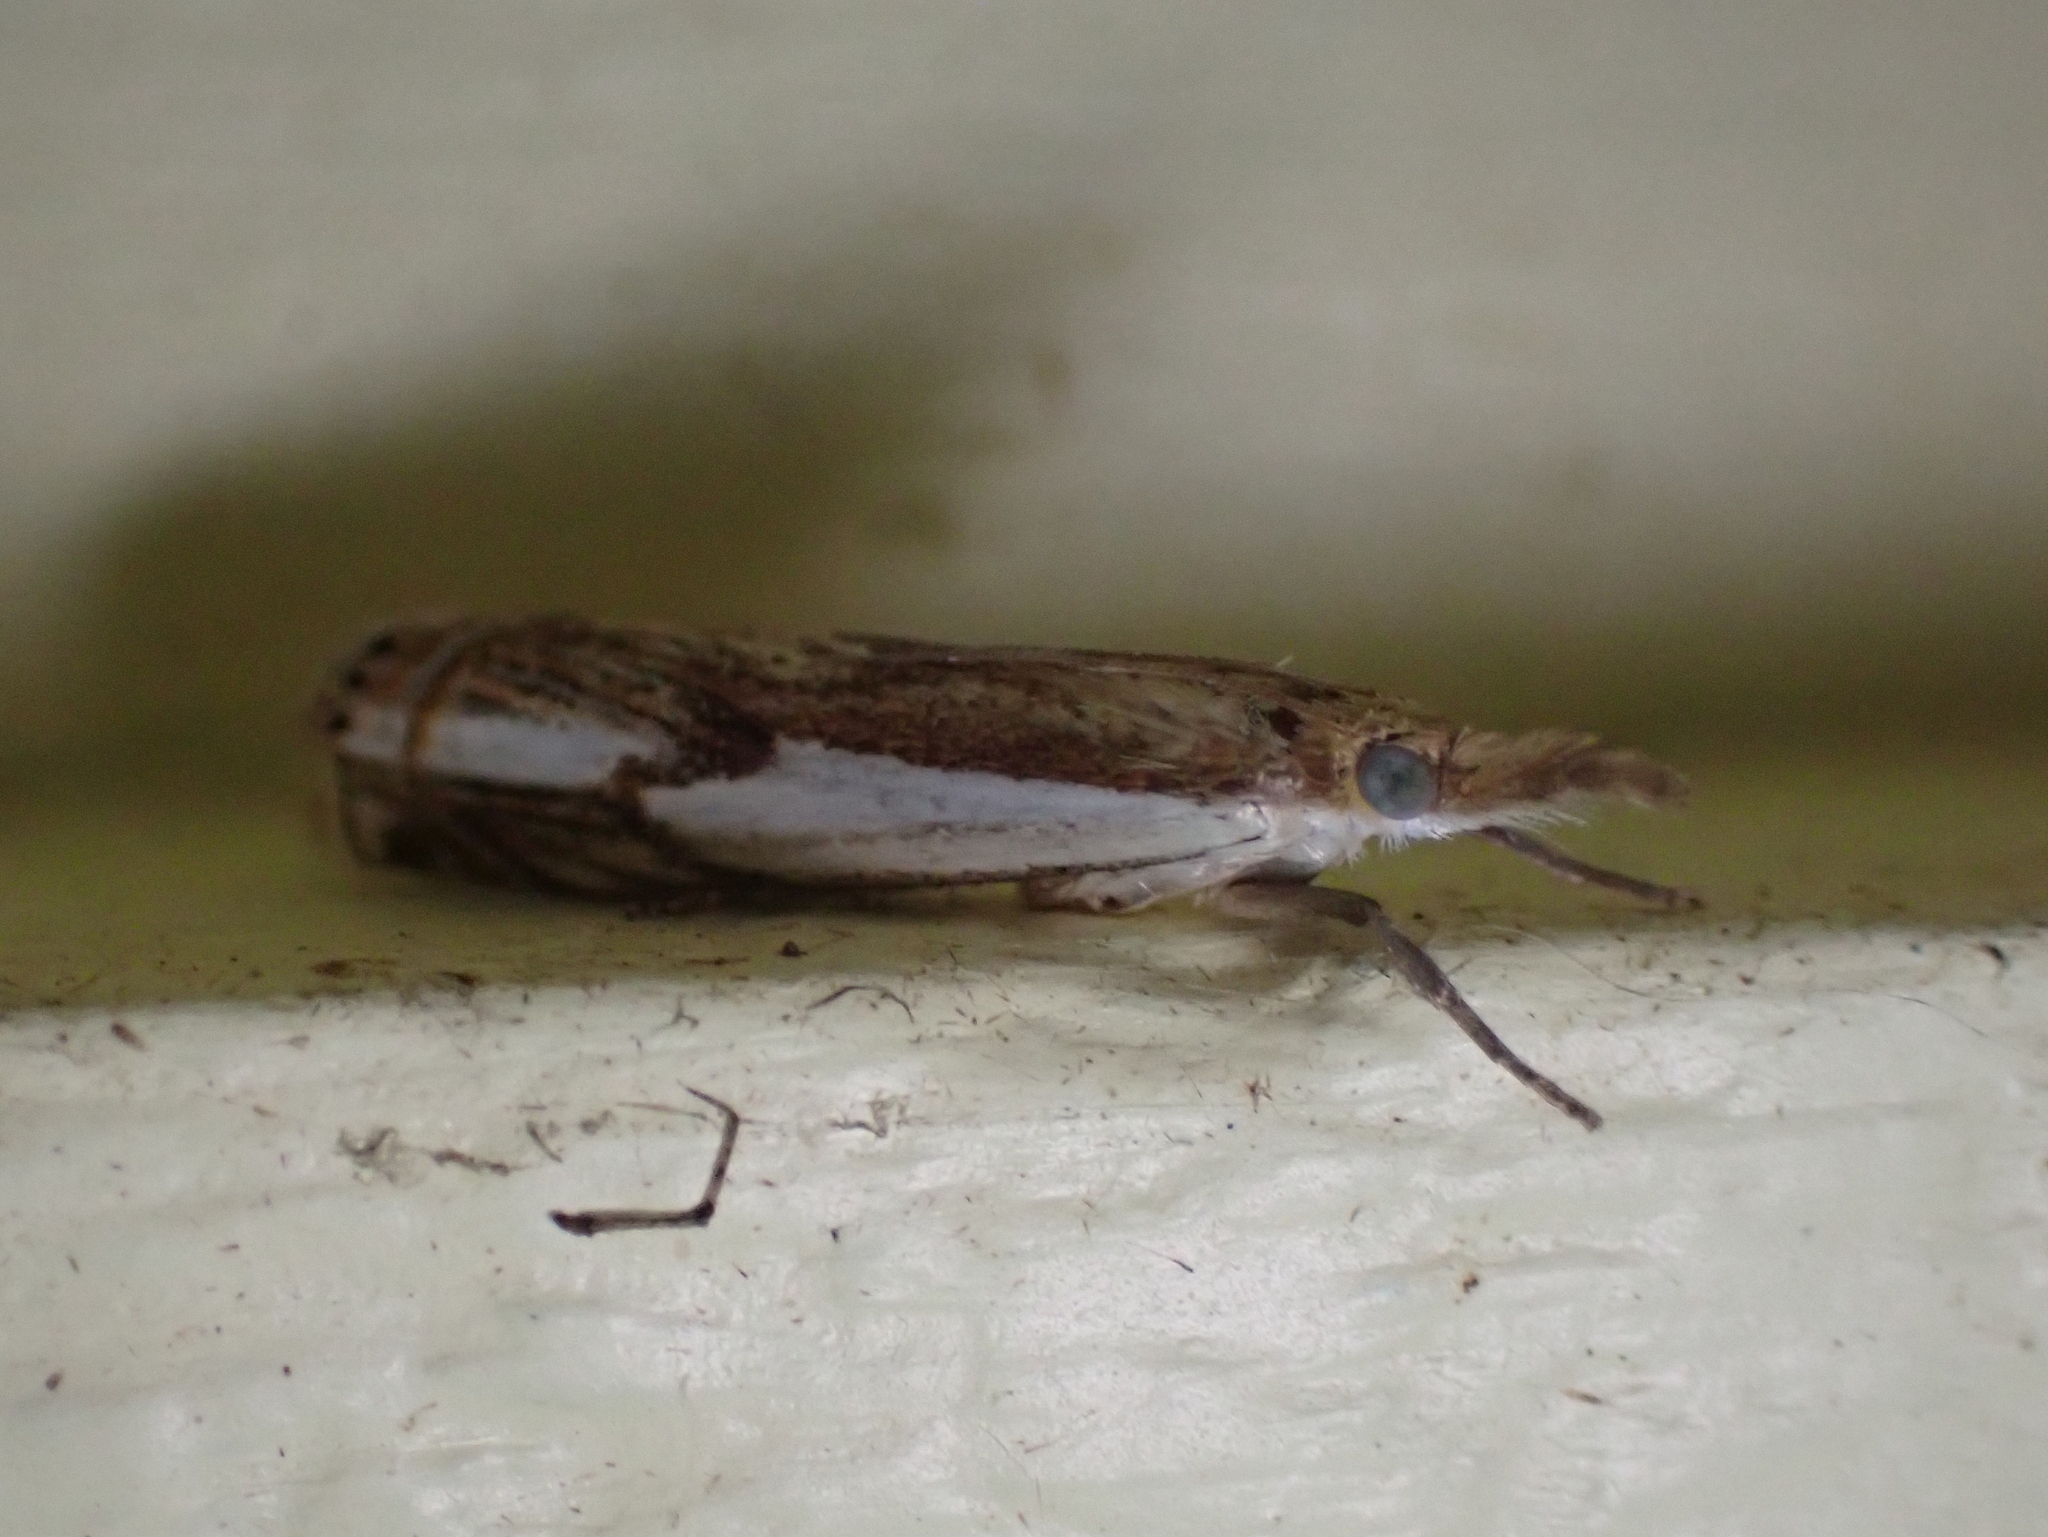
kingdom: Animalia
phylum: Arthropoda
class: Insecta
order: Lepidoptera
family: Crambidae
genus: Crambus
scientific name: Crambus agitatellus
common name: Double-banded grass-veneer
